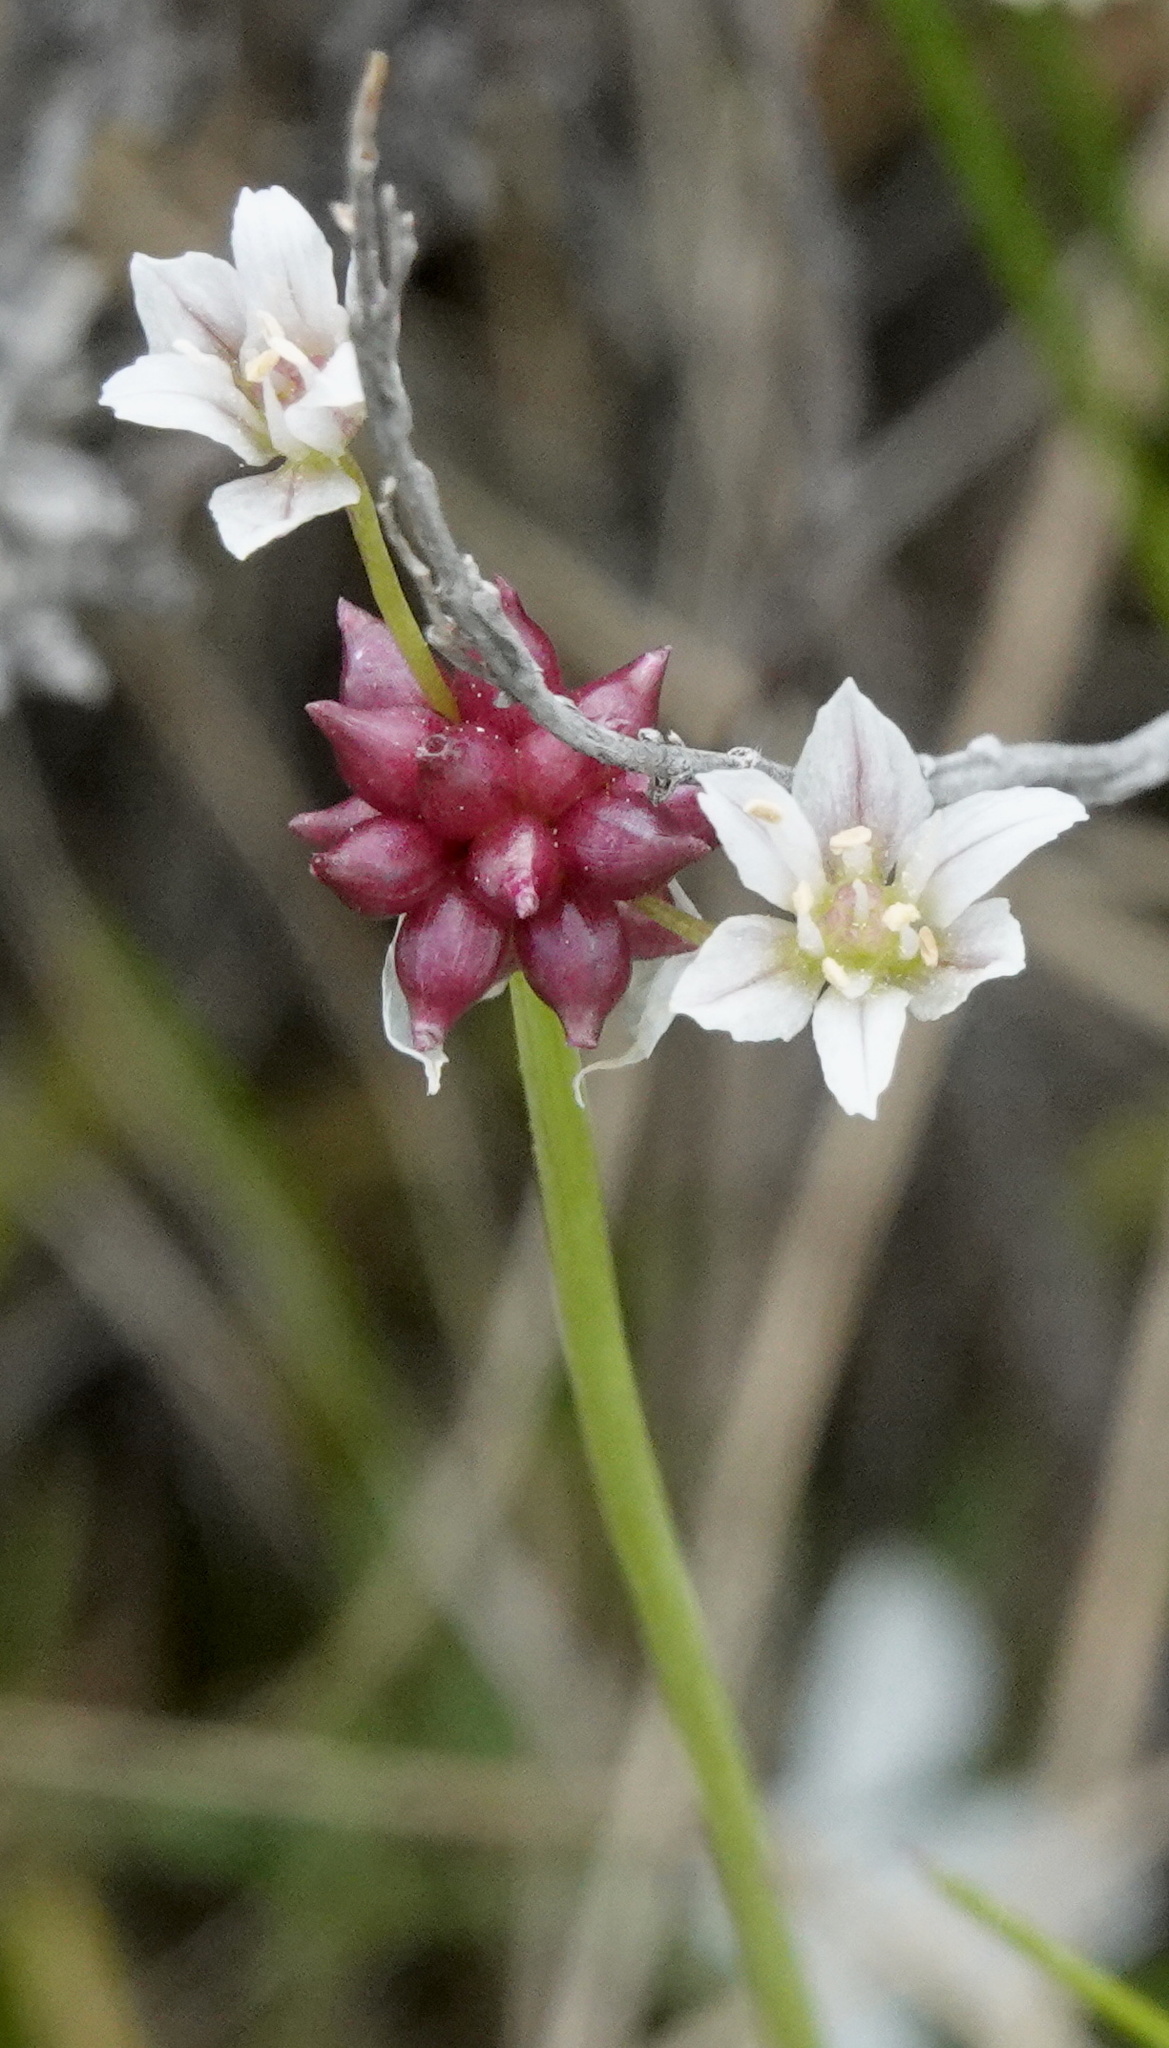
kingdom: Plantae
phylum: Tracheophyta
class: Liliopsida
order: Asparagales
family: Amaryllidaceae
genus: Allium
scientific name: Allium geyeri
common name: Geyer's onion
